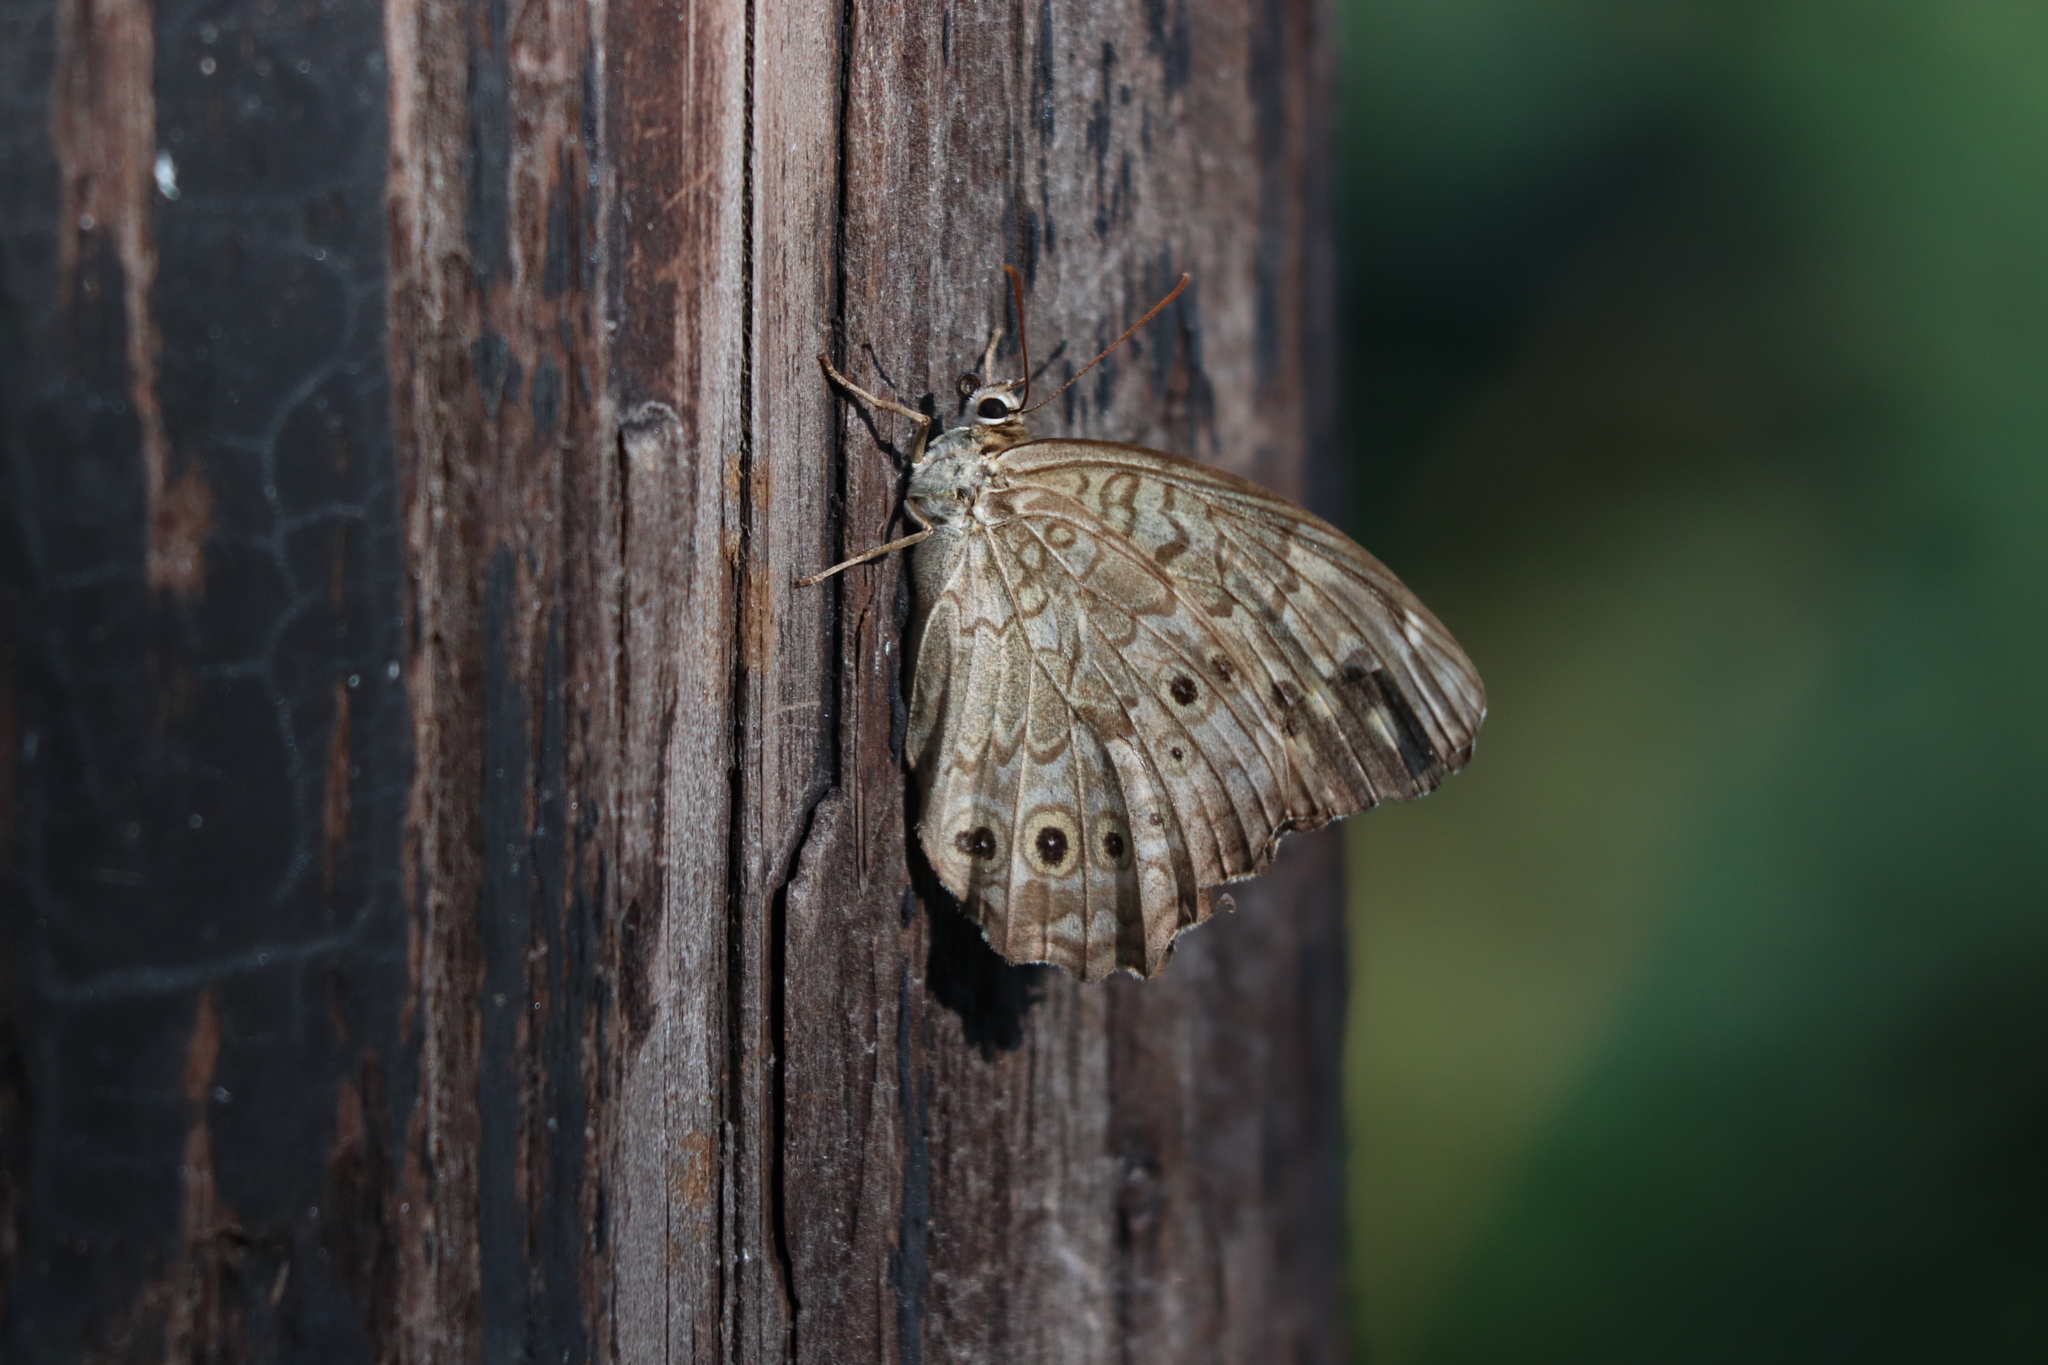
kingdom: Animalia
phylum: Arthropoda
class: Insecta
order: Lepidoptera
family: Nymphalidae
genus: Neope
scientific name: Neope goschkevitschii
